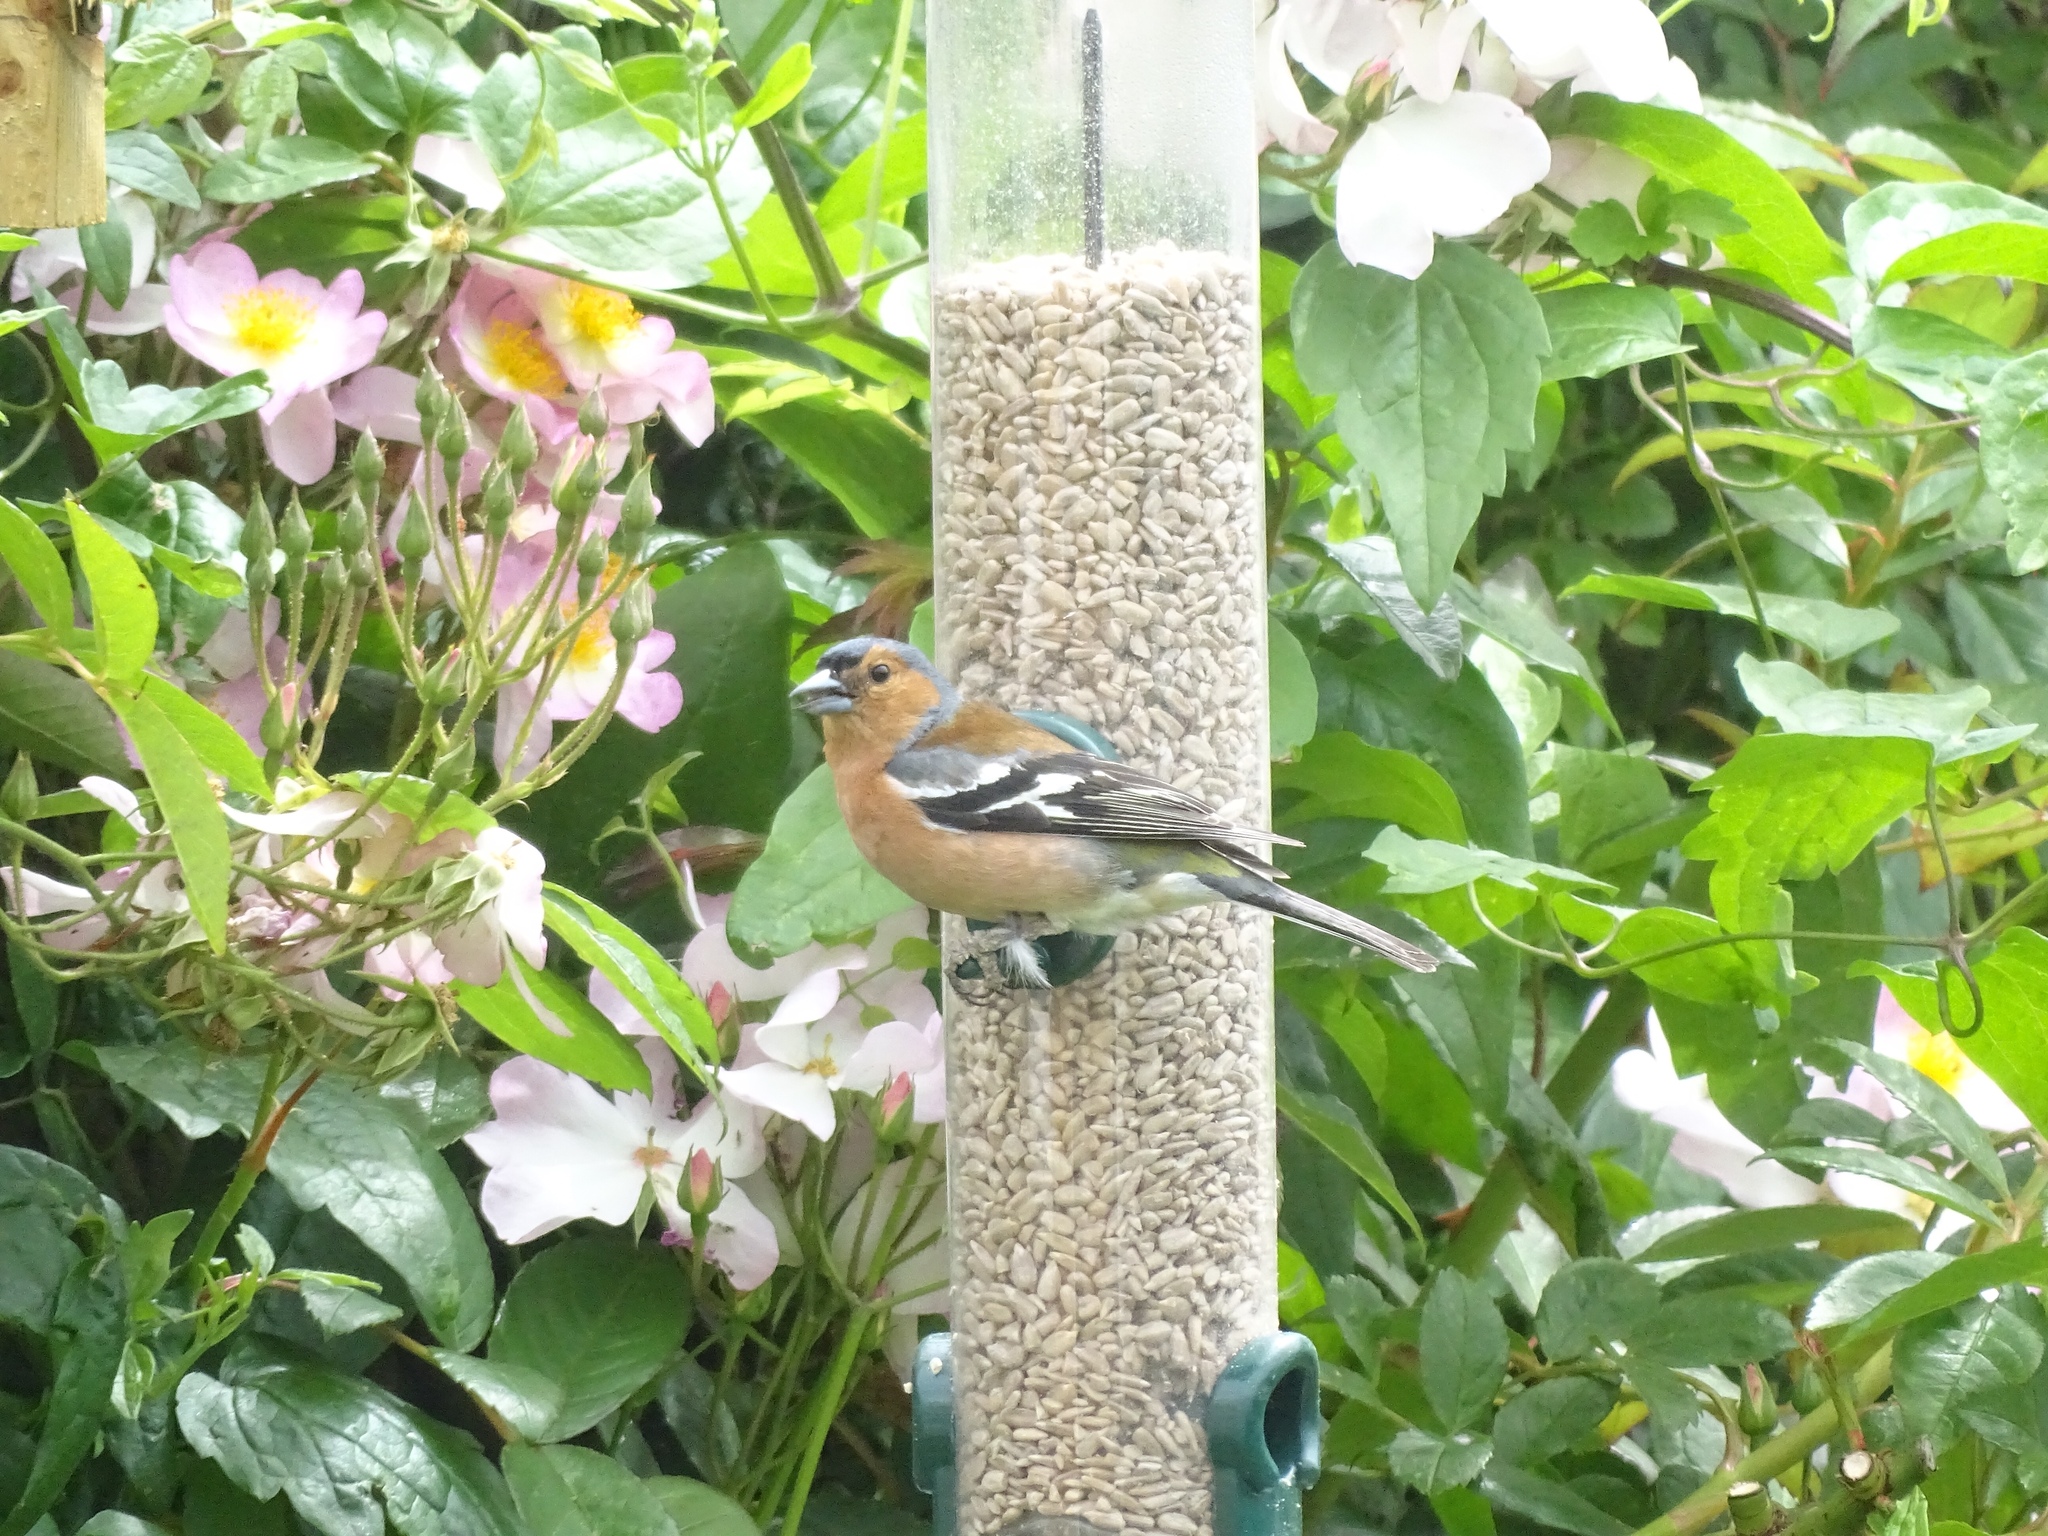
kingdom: Animalia
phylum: Chordata
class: Aves
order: Passeriformes
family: Fringillidae
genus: Fringilla
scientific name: Fringilla coelebs
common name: Common chaffinch
